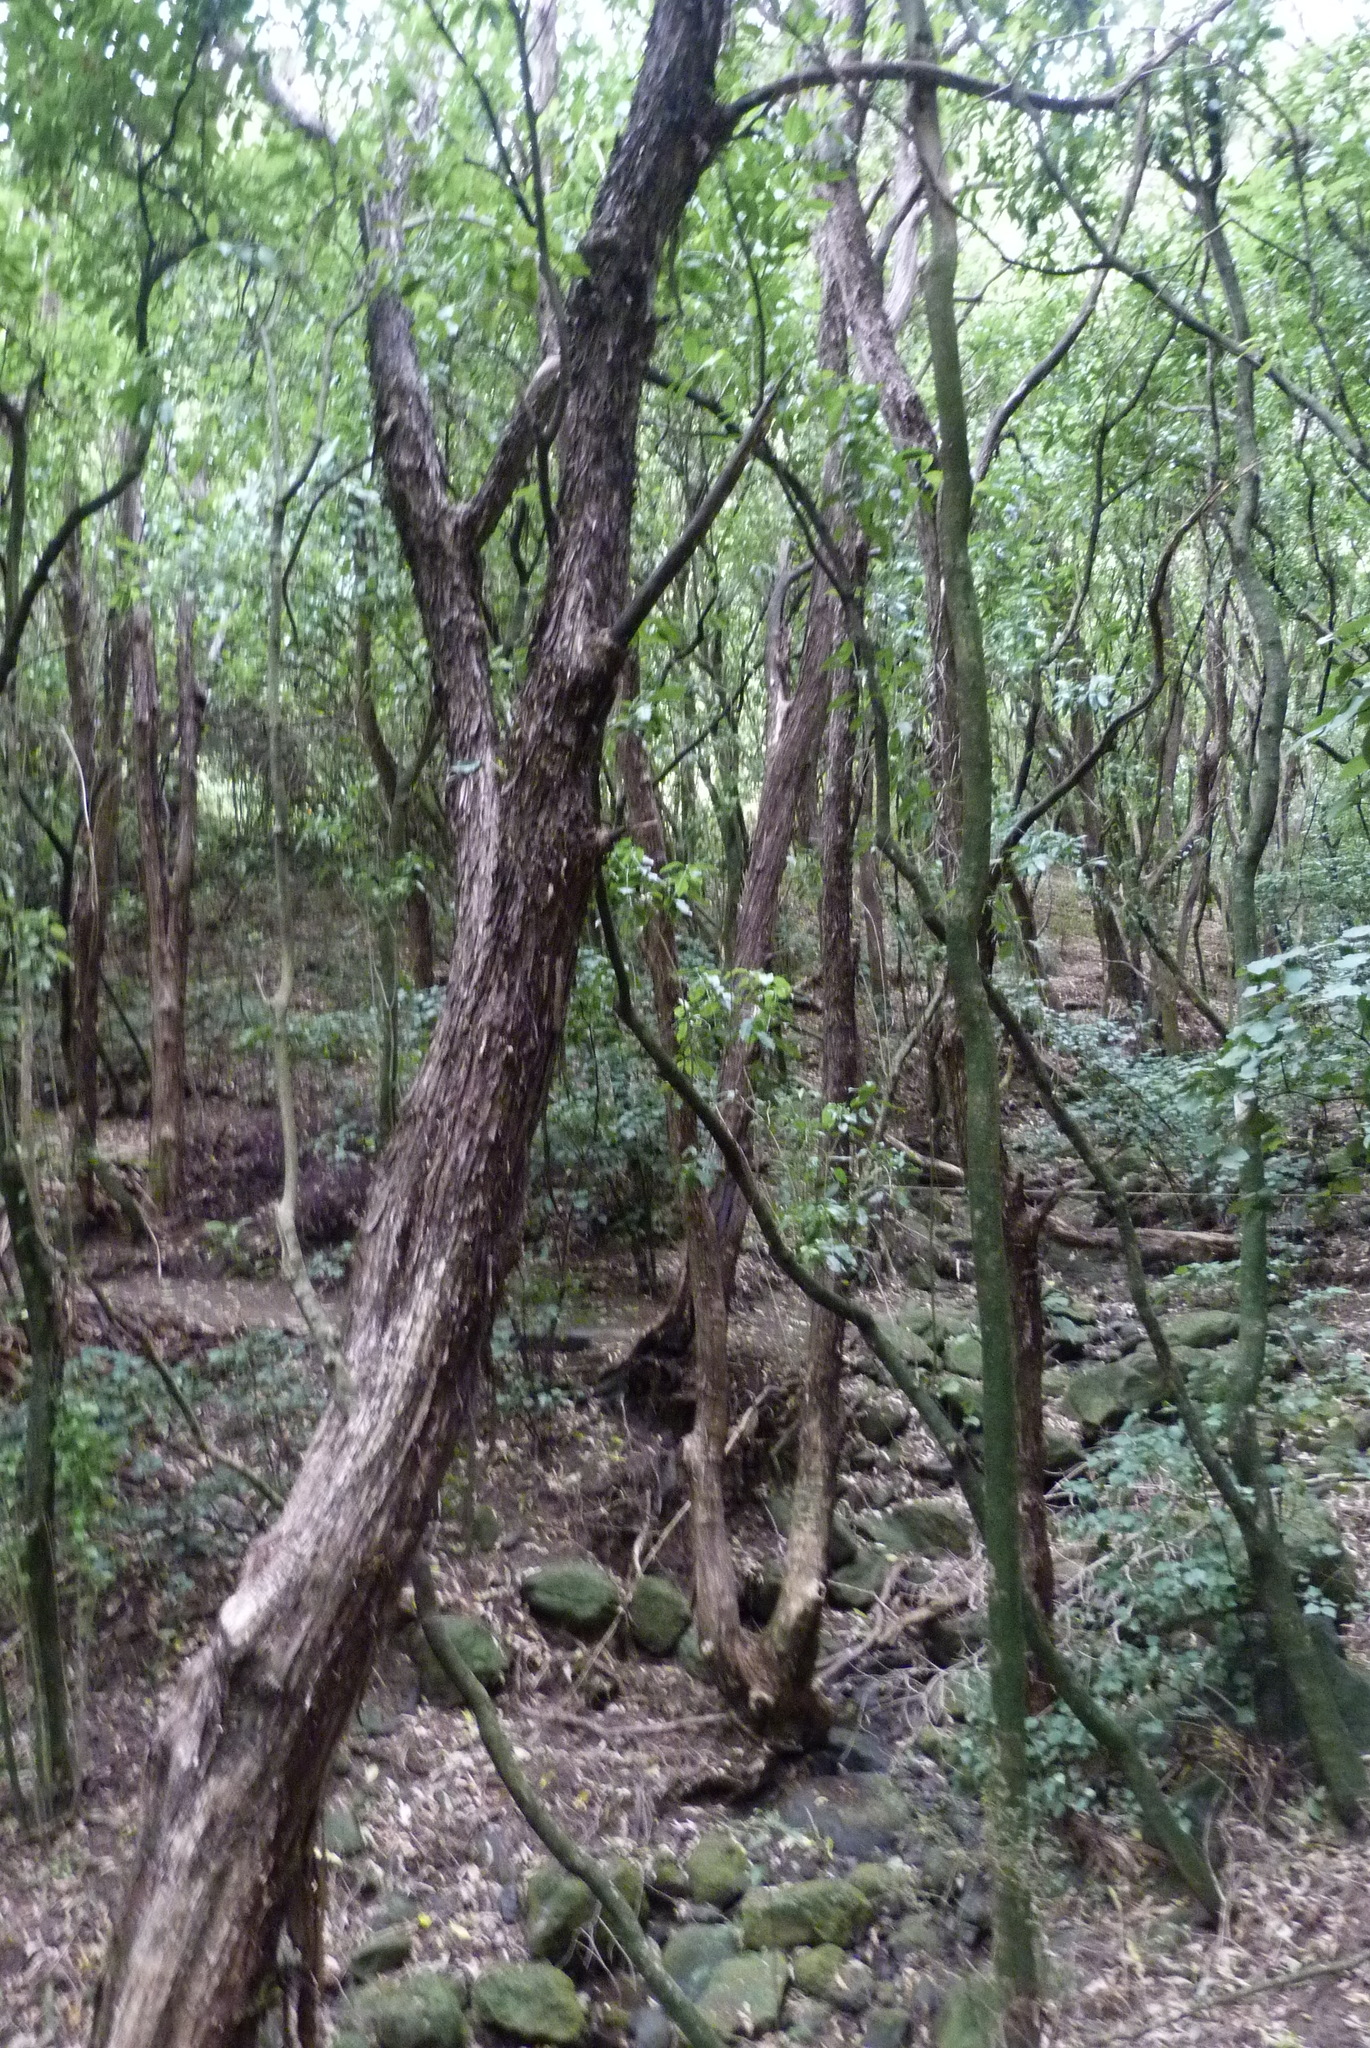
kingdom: Plantae
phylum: Tracheophyta
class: Magnoliopsida
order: Myrtales
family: Myrtaceae
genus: Kunzea
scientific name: Kunzea robusta
